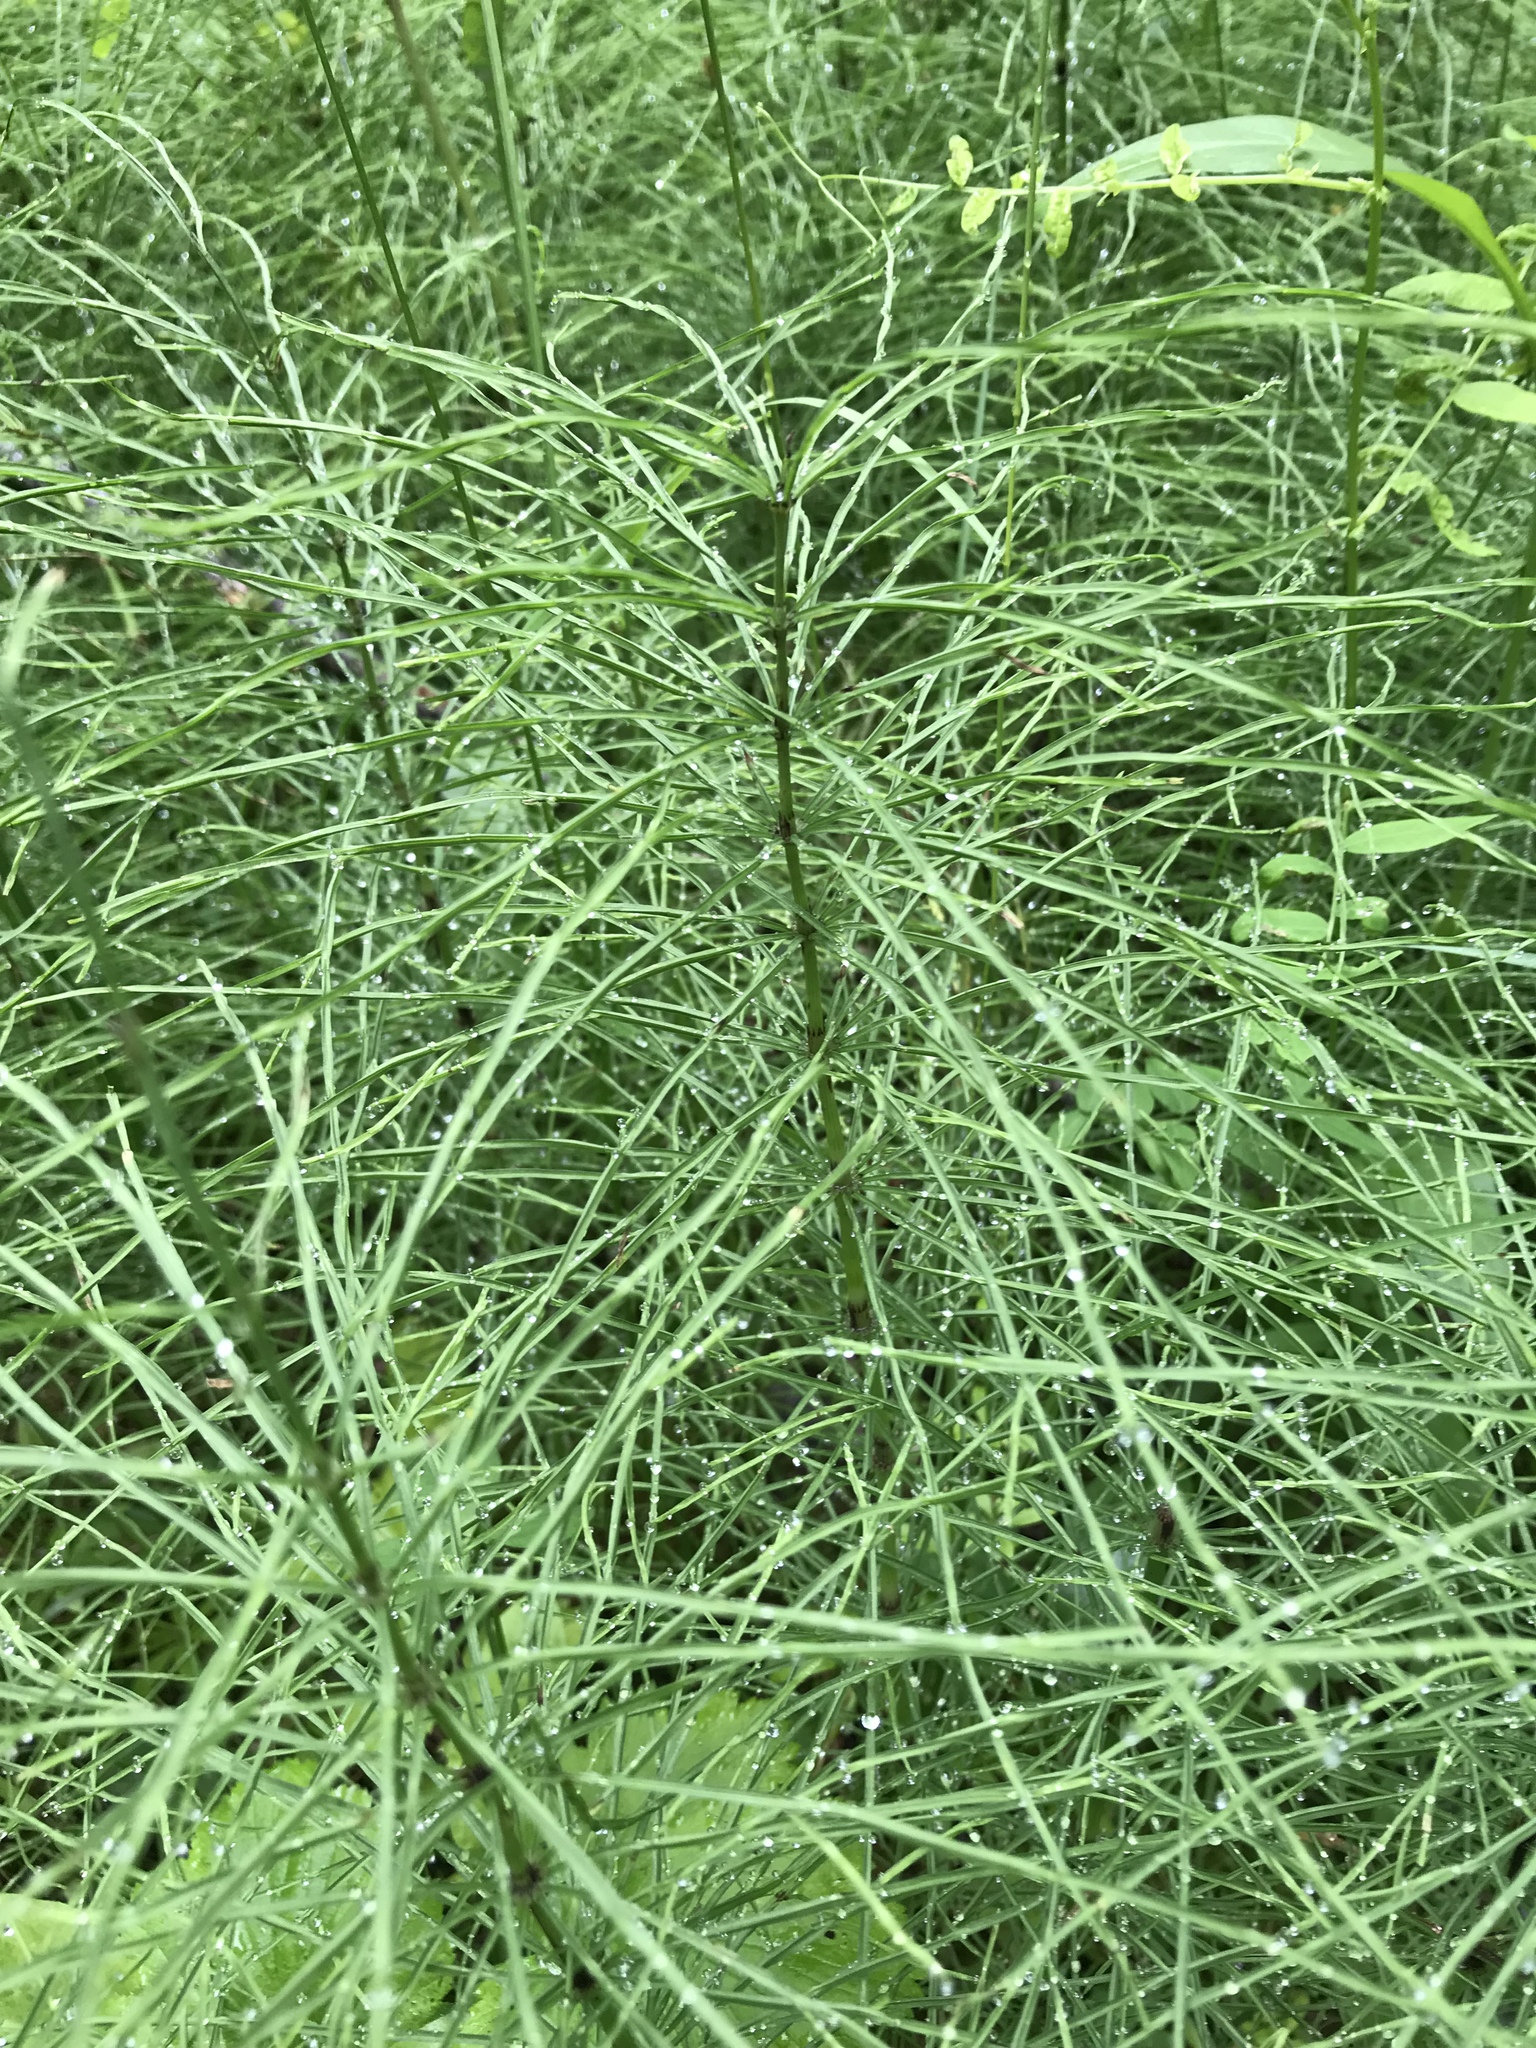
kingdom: Plantae
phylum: Tracheophyta
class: Polypodiopsida
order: Equisetales
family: Equisetaceae
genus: Equisetum
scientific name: Equisetum sylvaticum
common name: Wood horsetail
